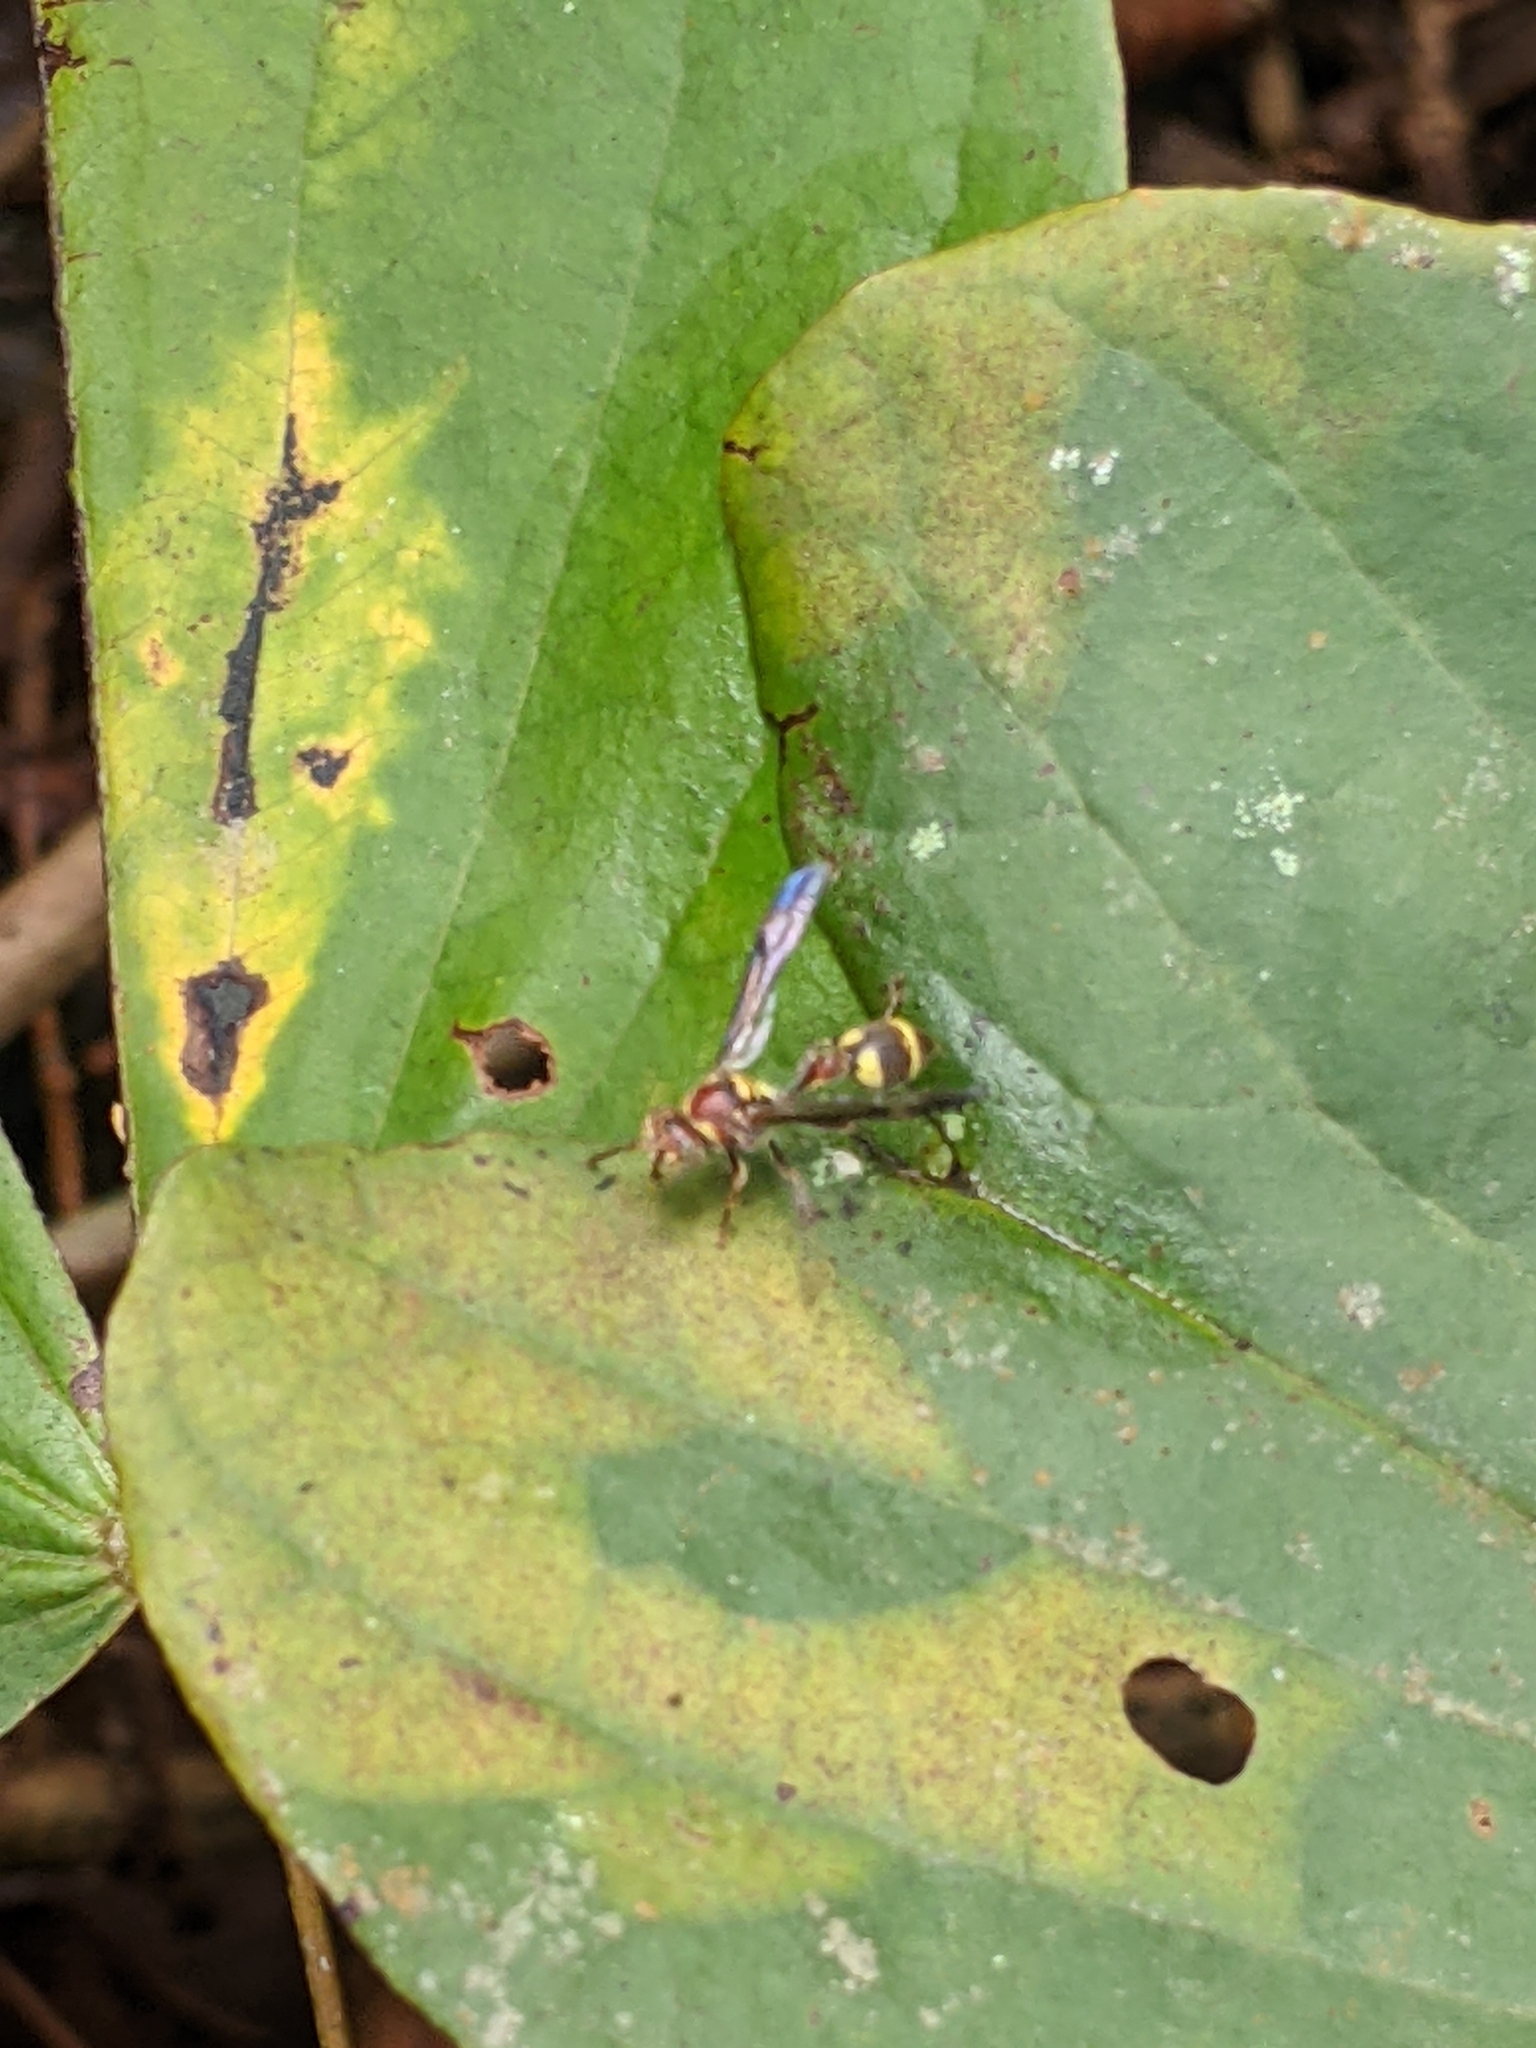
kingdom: Animalia
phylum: Arthropoda
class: Insecta
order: Hymenoptera
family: Vespidae
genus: Ropalidia
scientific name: Ropalidia stigma
